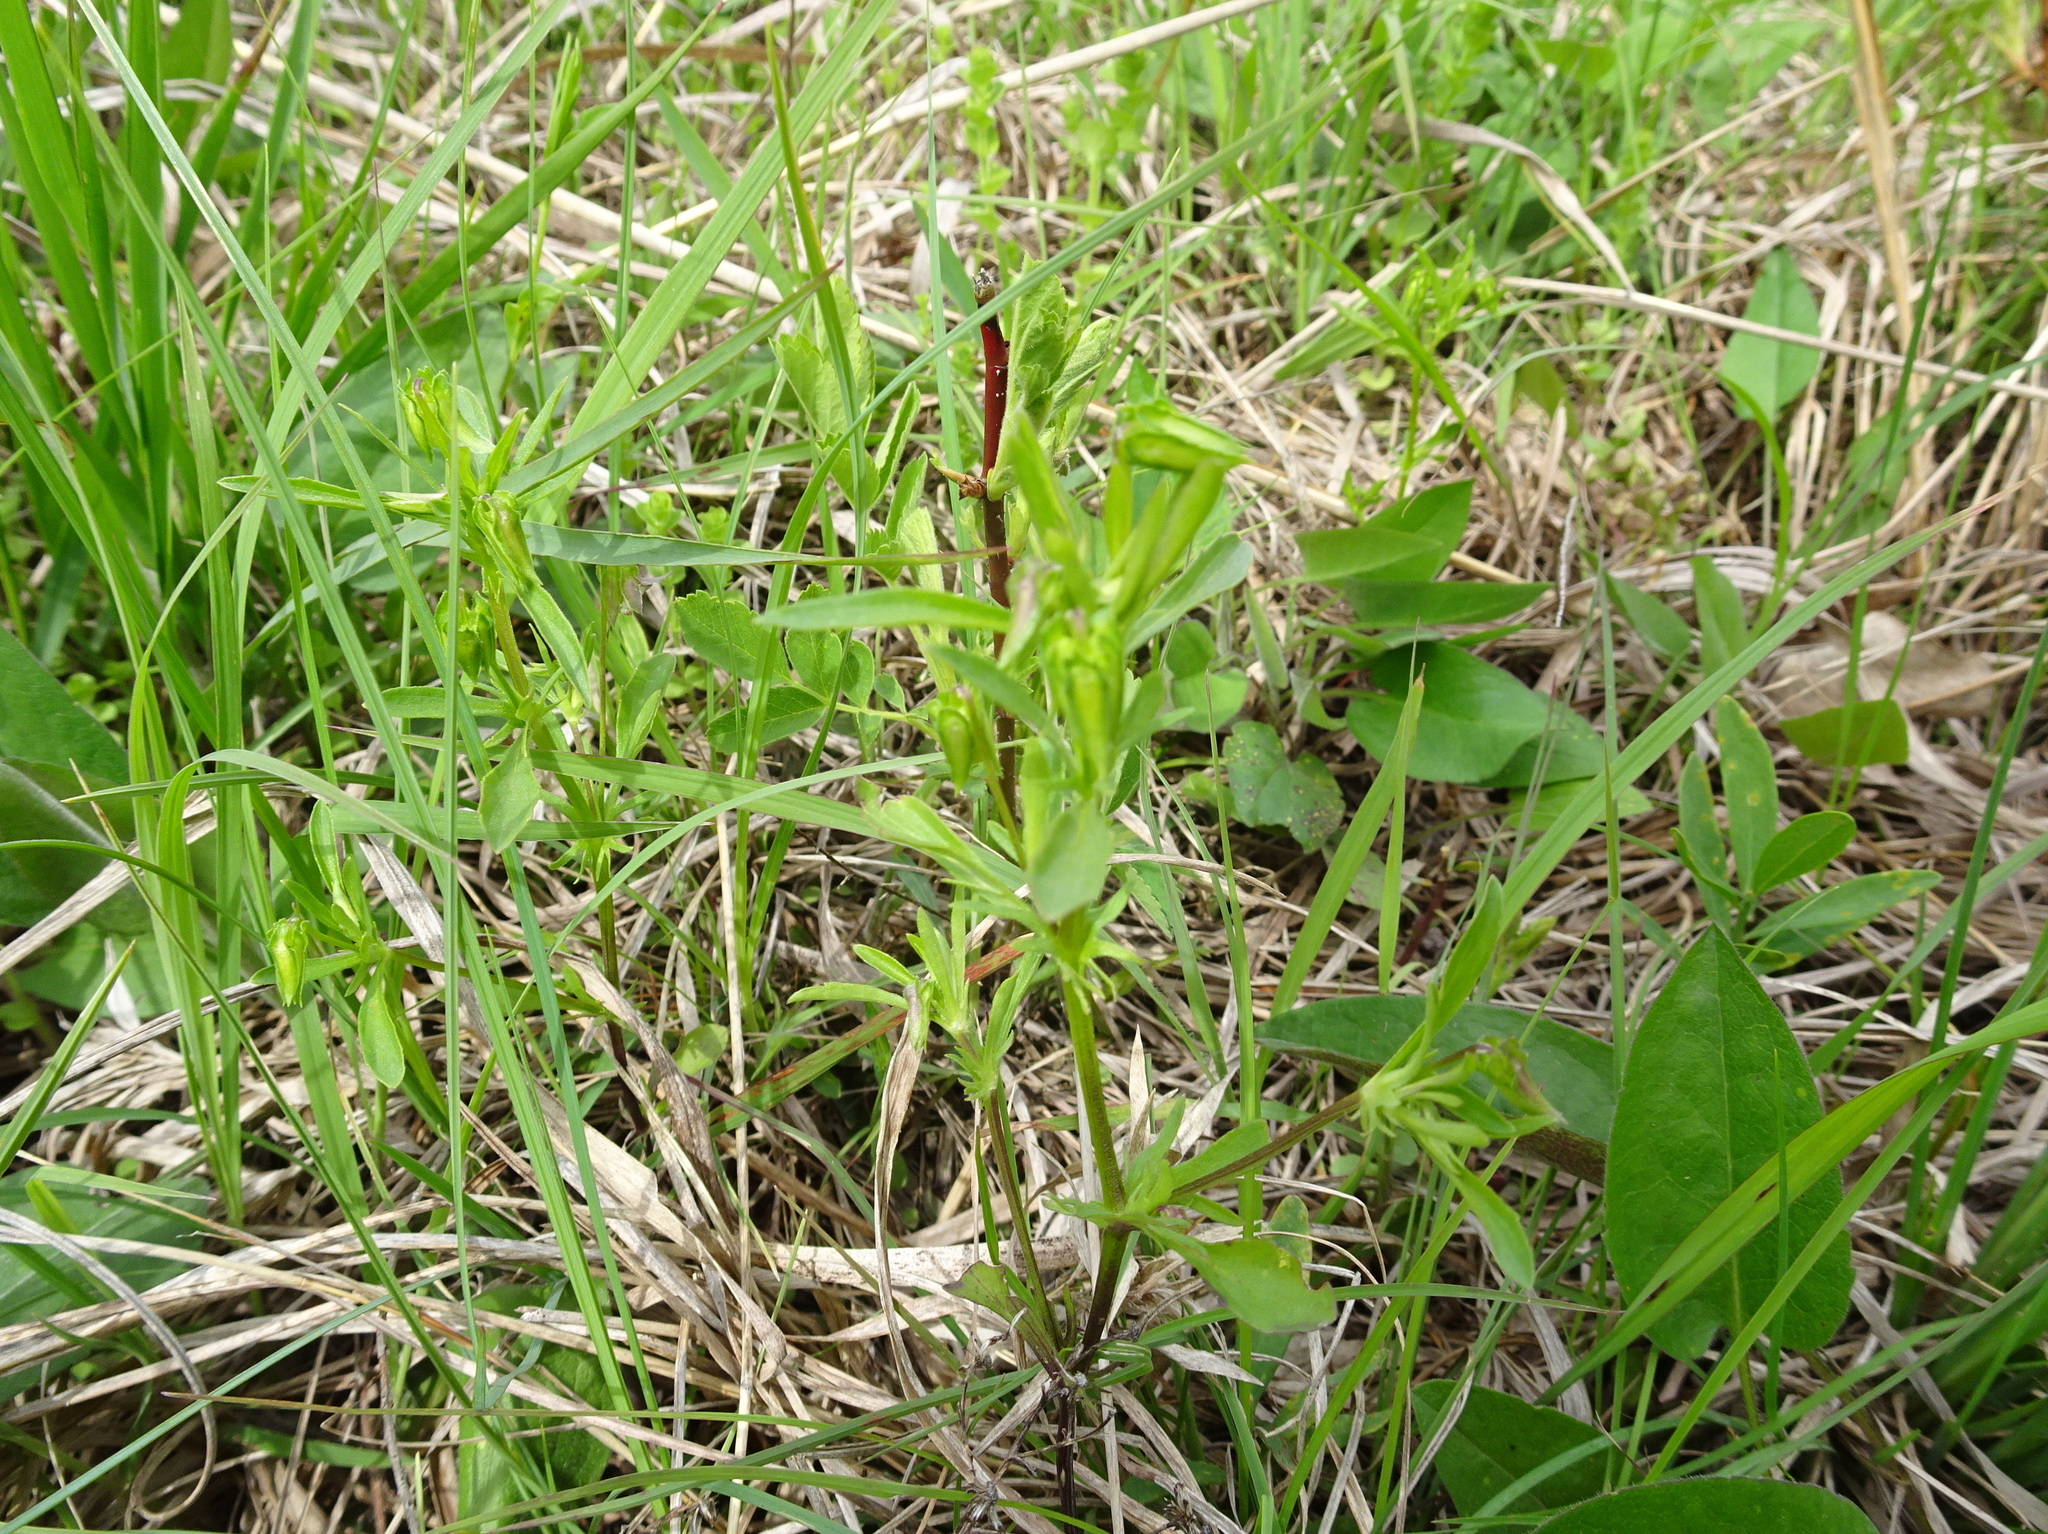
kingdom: Plantae
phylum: Tracheophyta
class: Magnoliopsida
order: Malpighiales
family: Violaceae
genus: Viola
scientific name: Viola rafinesquei
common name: American field pansy
